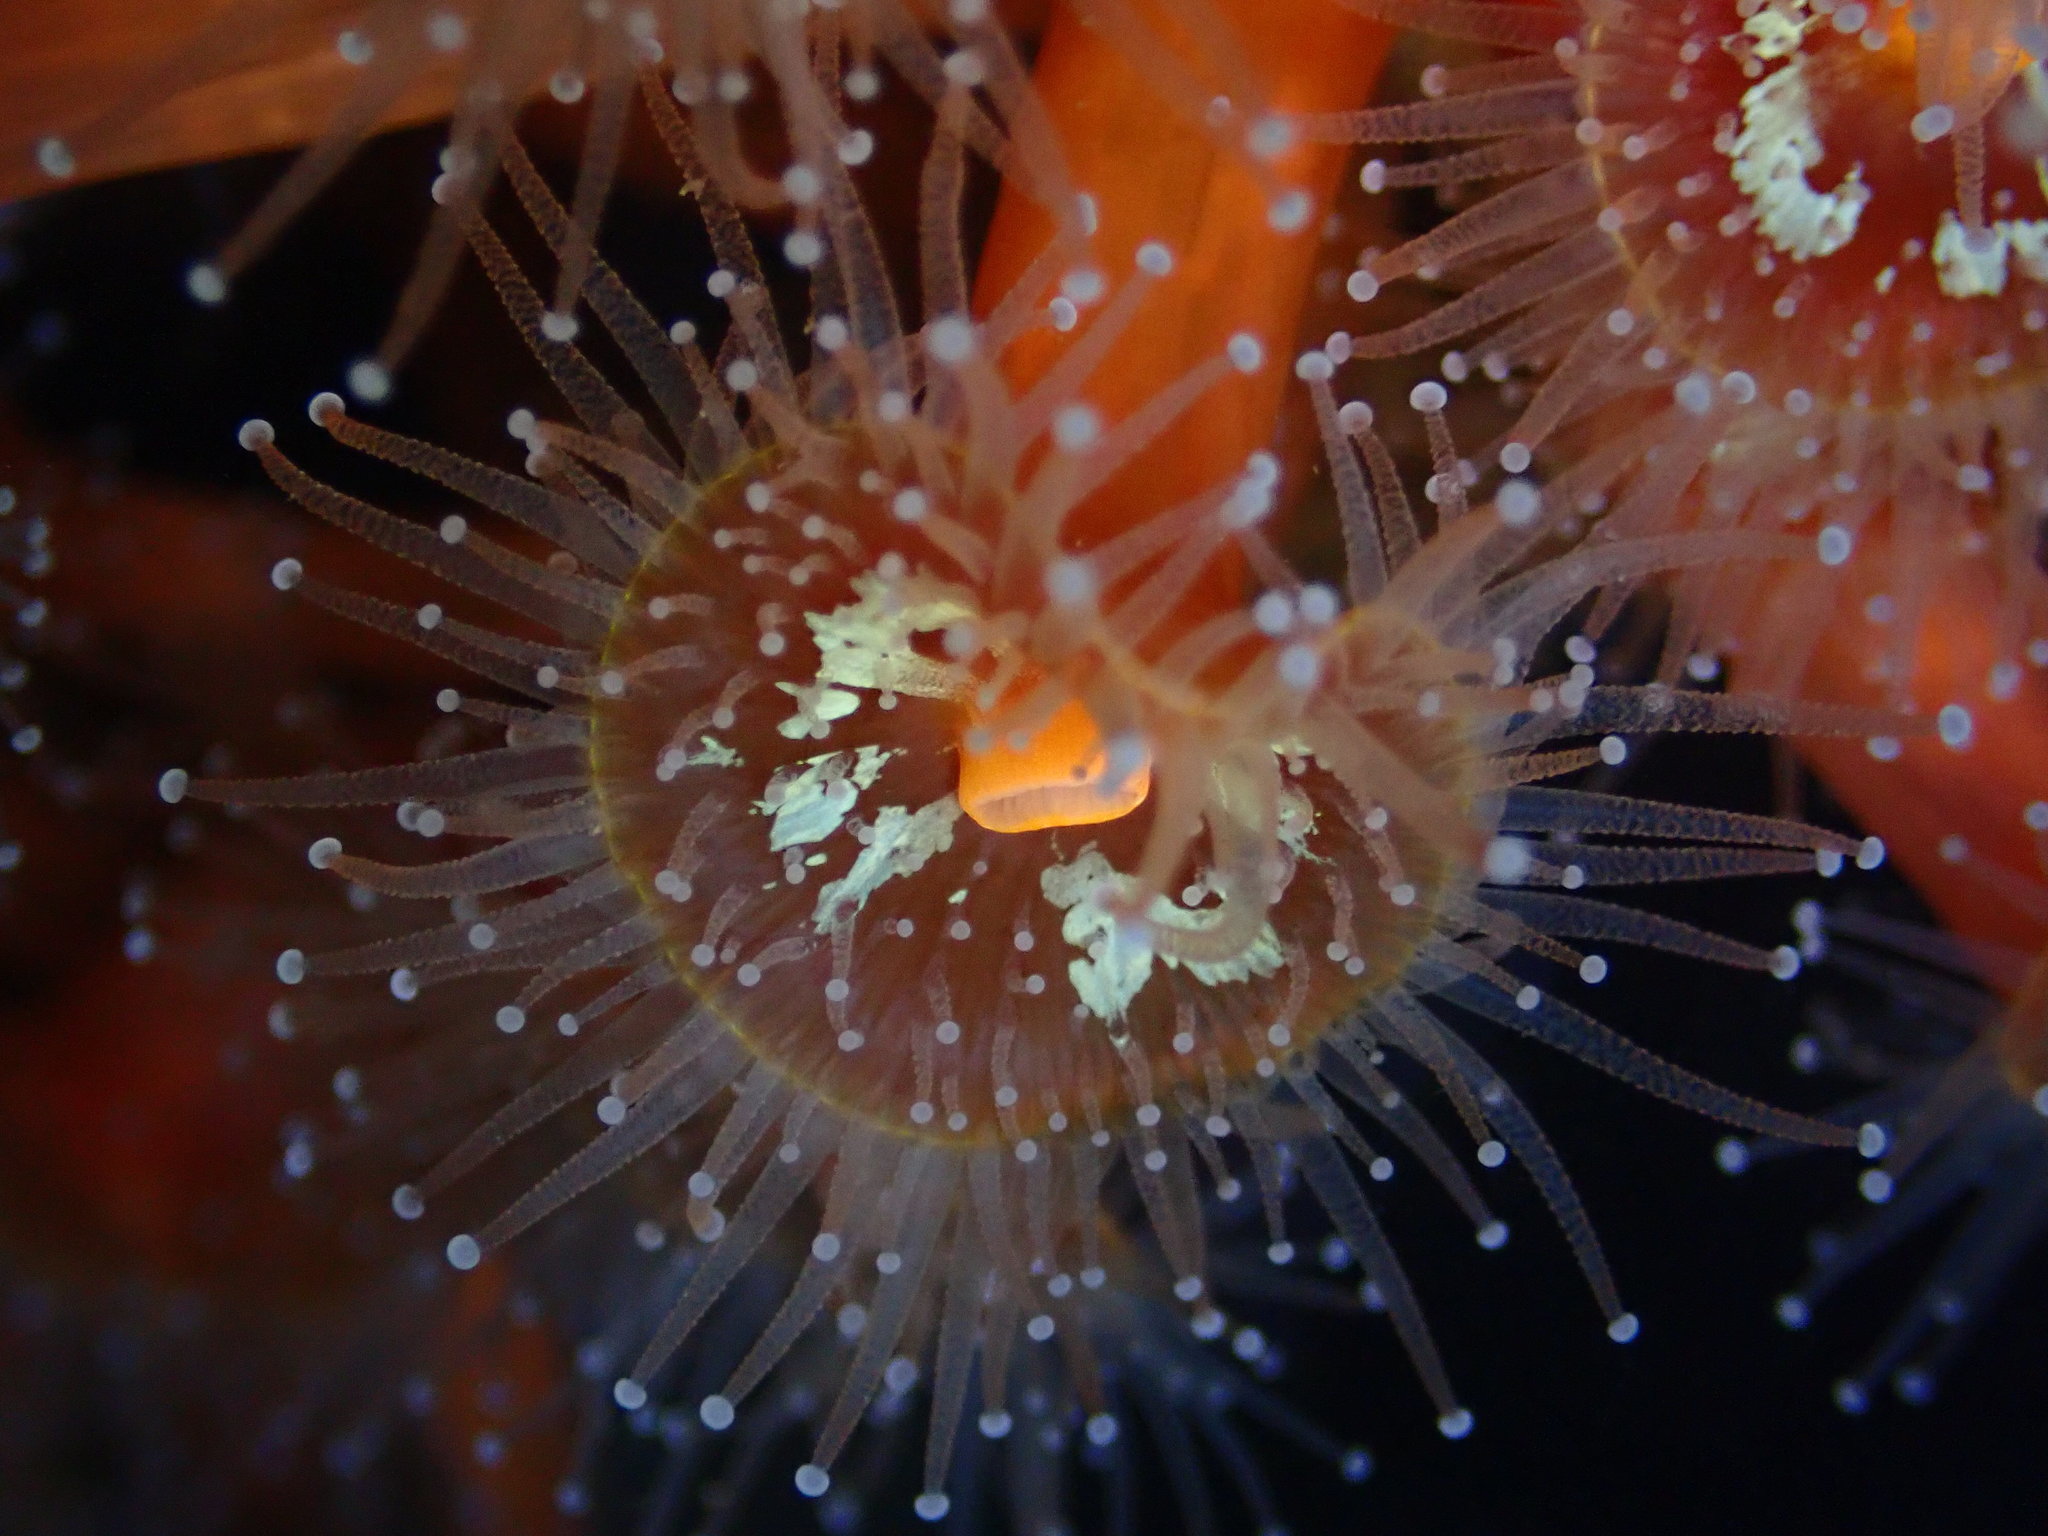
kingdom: Animalia
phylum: Cnidaria
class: Anthozoa
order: Corallimorpharia
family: Corallimorphidae
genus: Corynactis
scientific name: Corynactis californica
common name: Strawberry corallimorpharian
